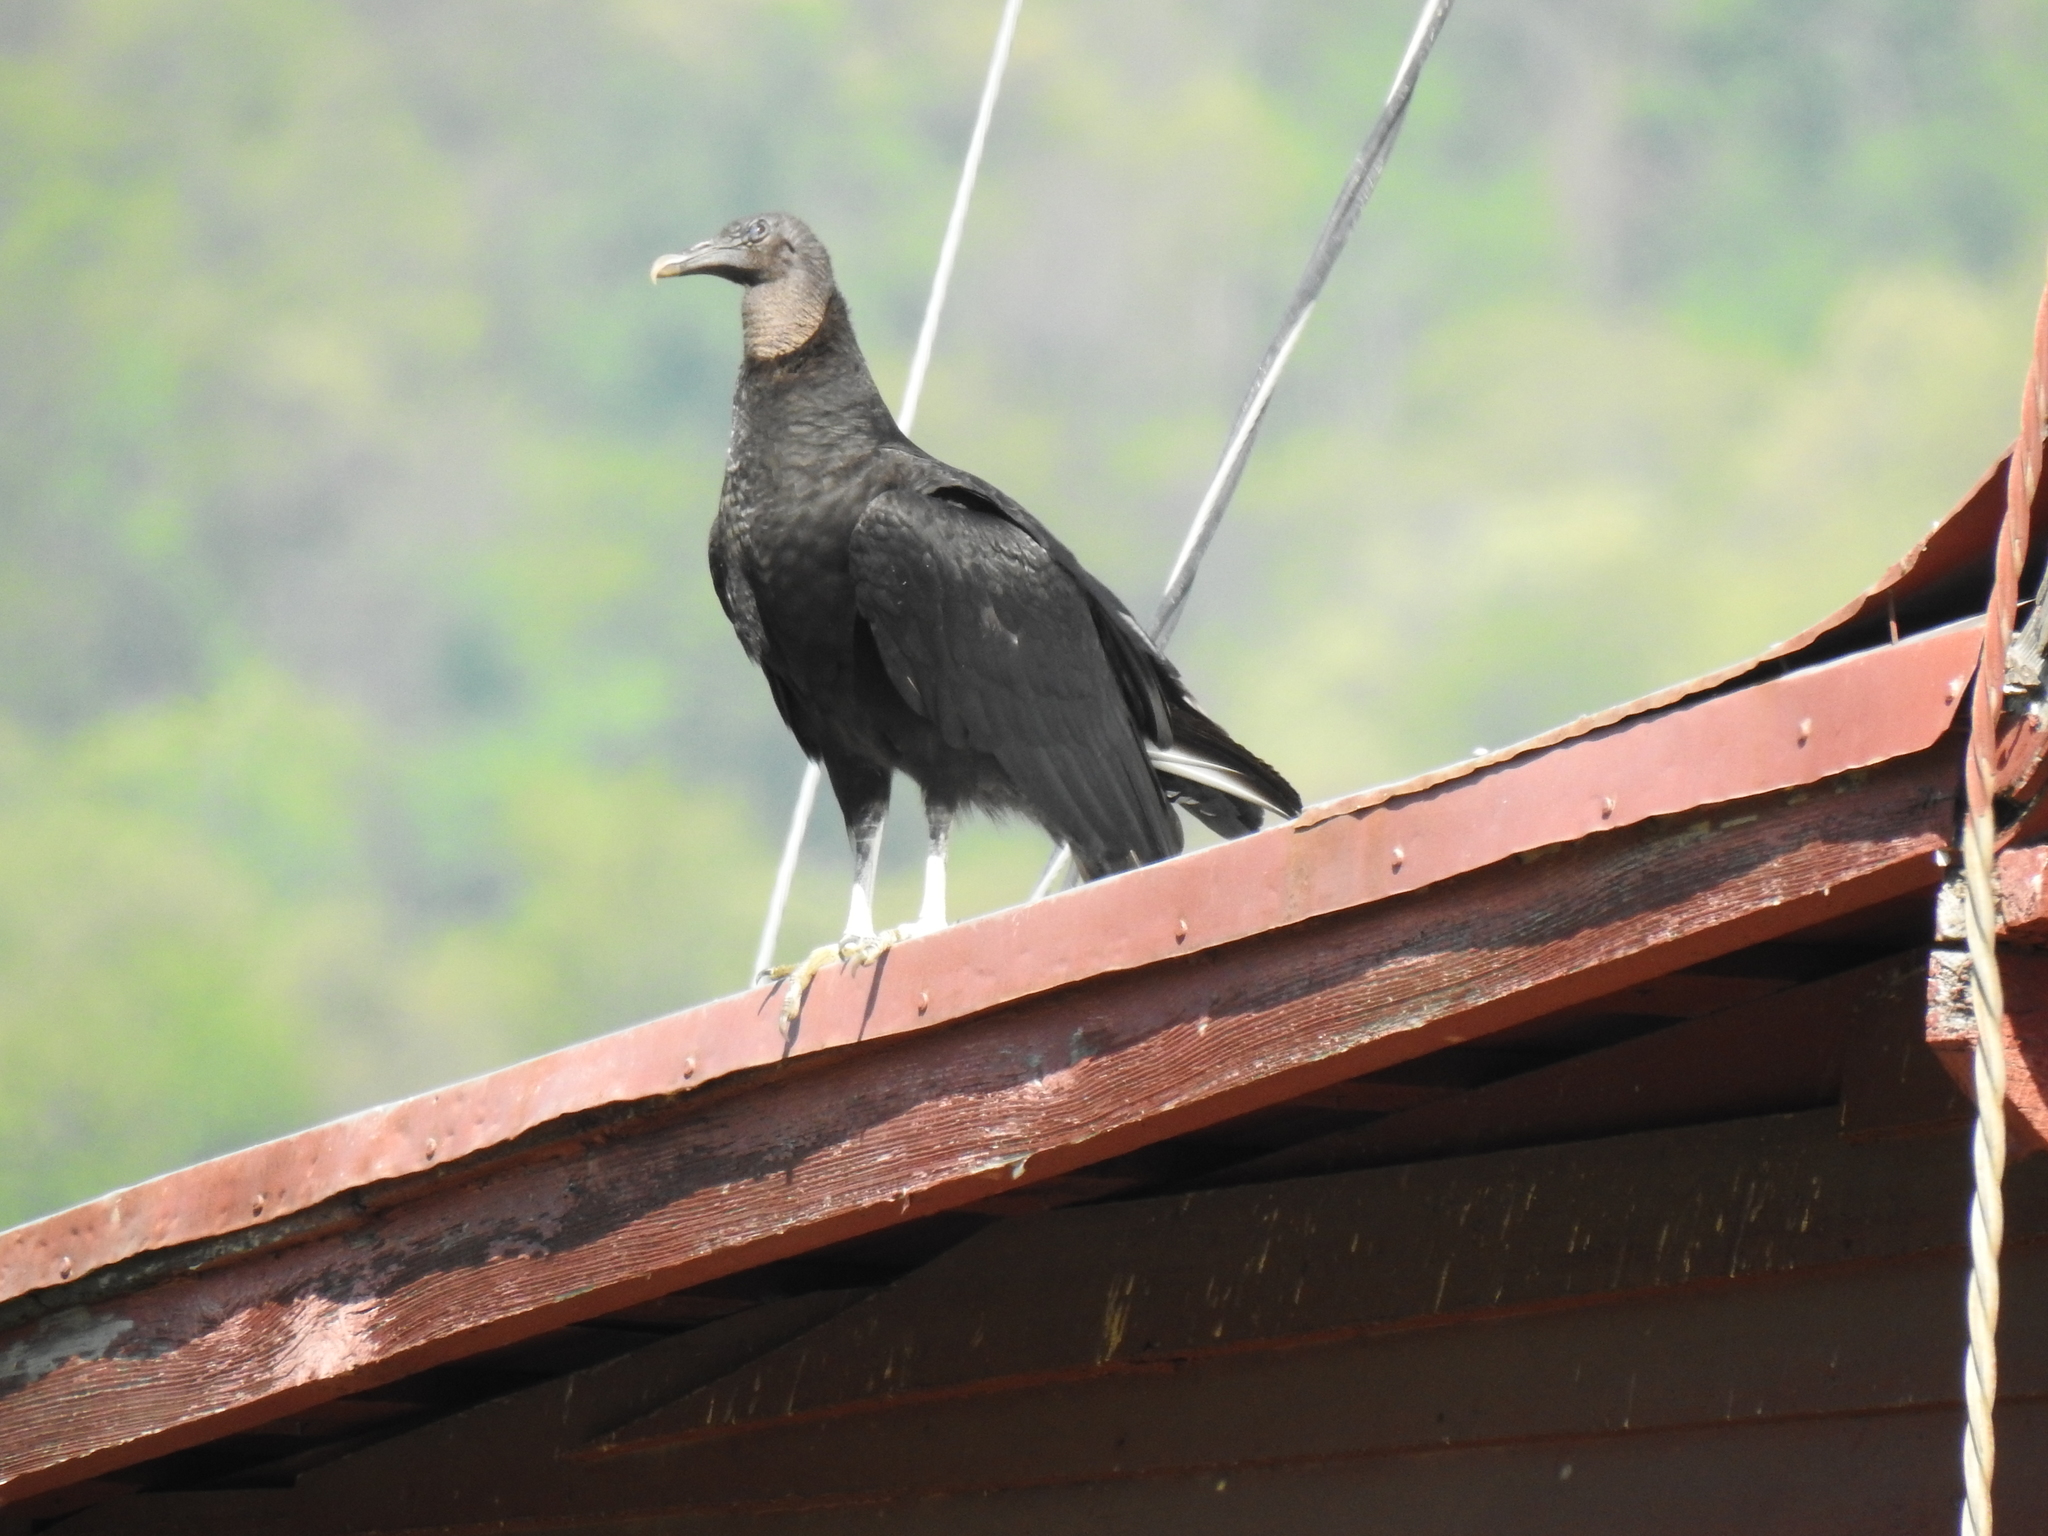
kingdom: Animalia
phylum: Chordata
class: Aves
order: Accipitriformes
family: Cathartidae
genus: Coragyps
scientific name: Coragyps atratus
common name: Black vulture
